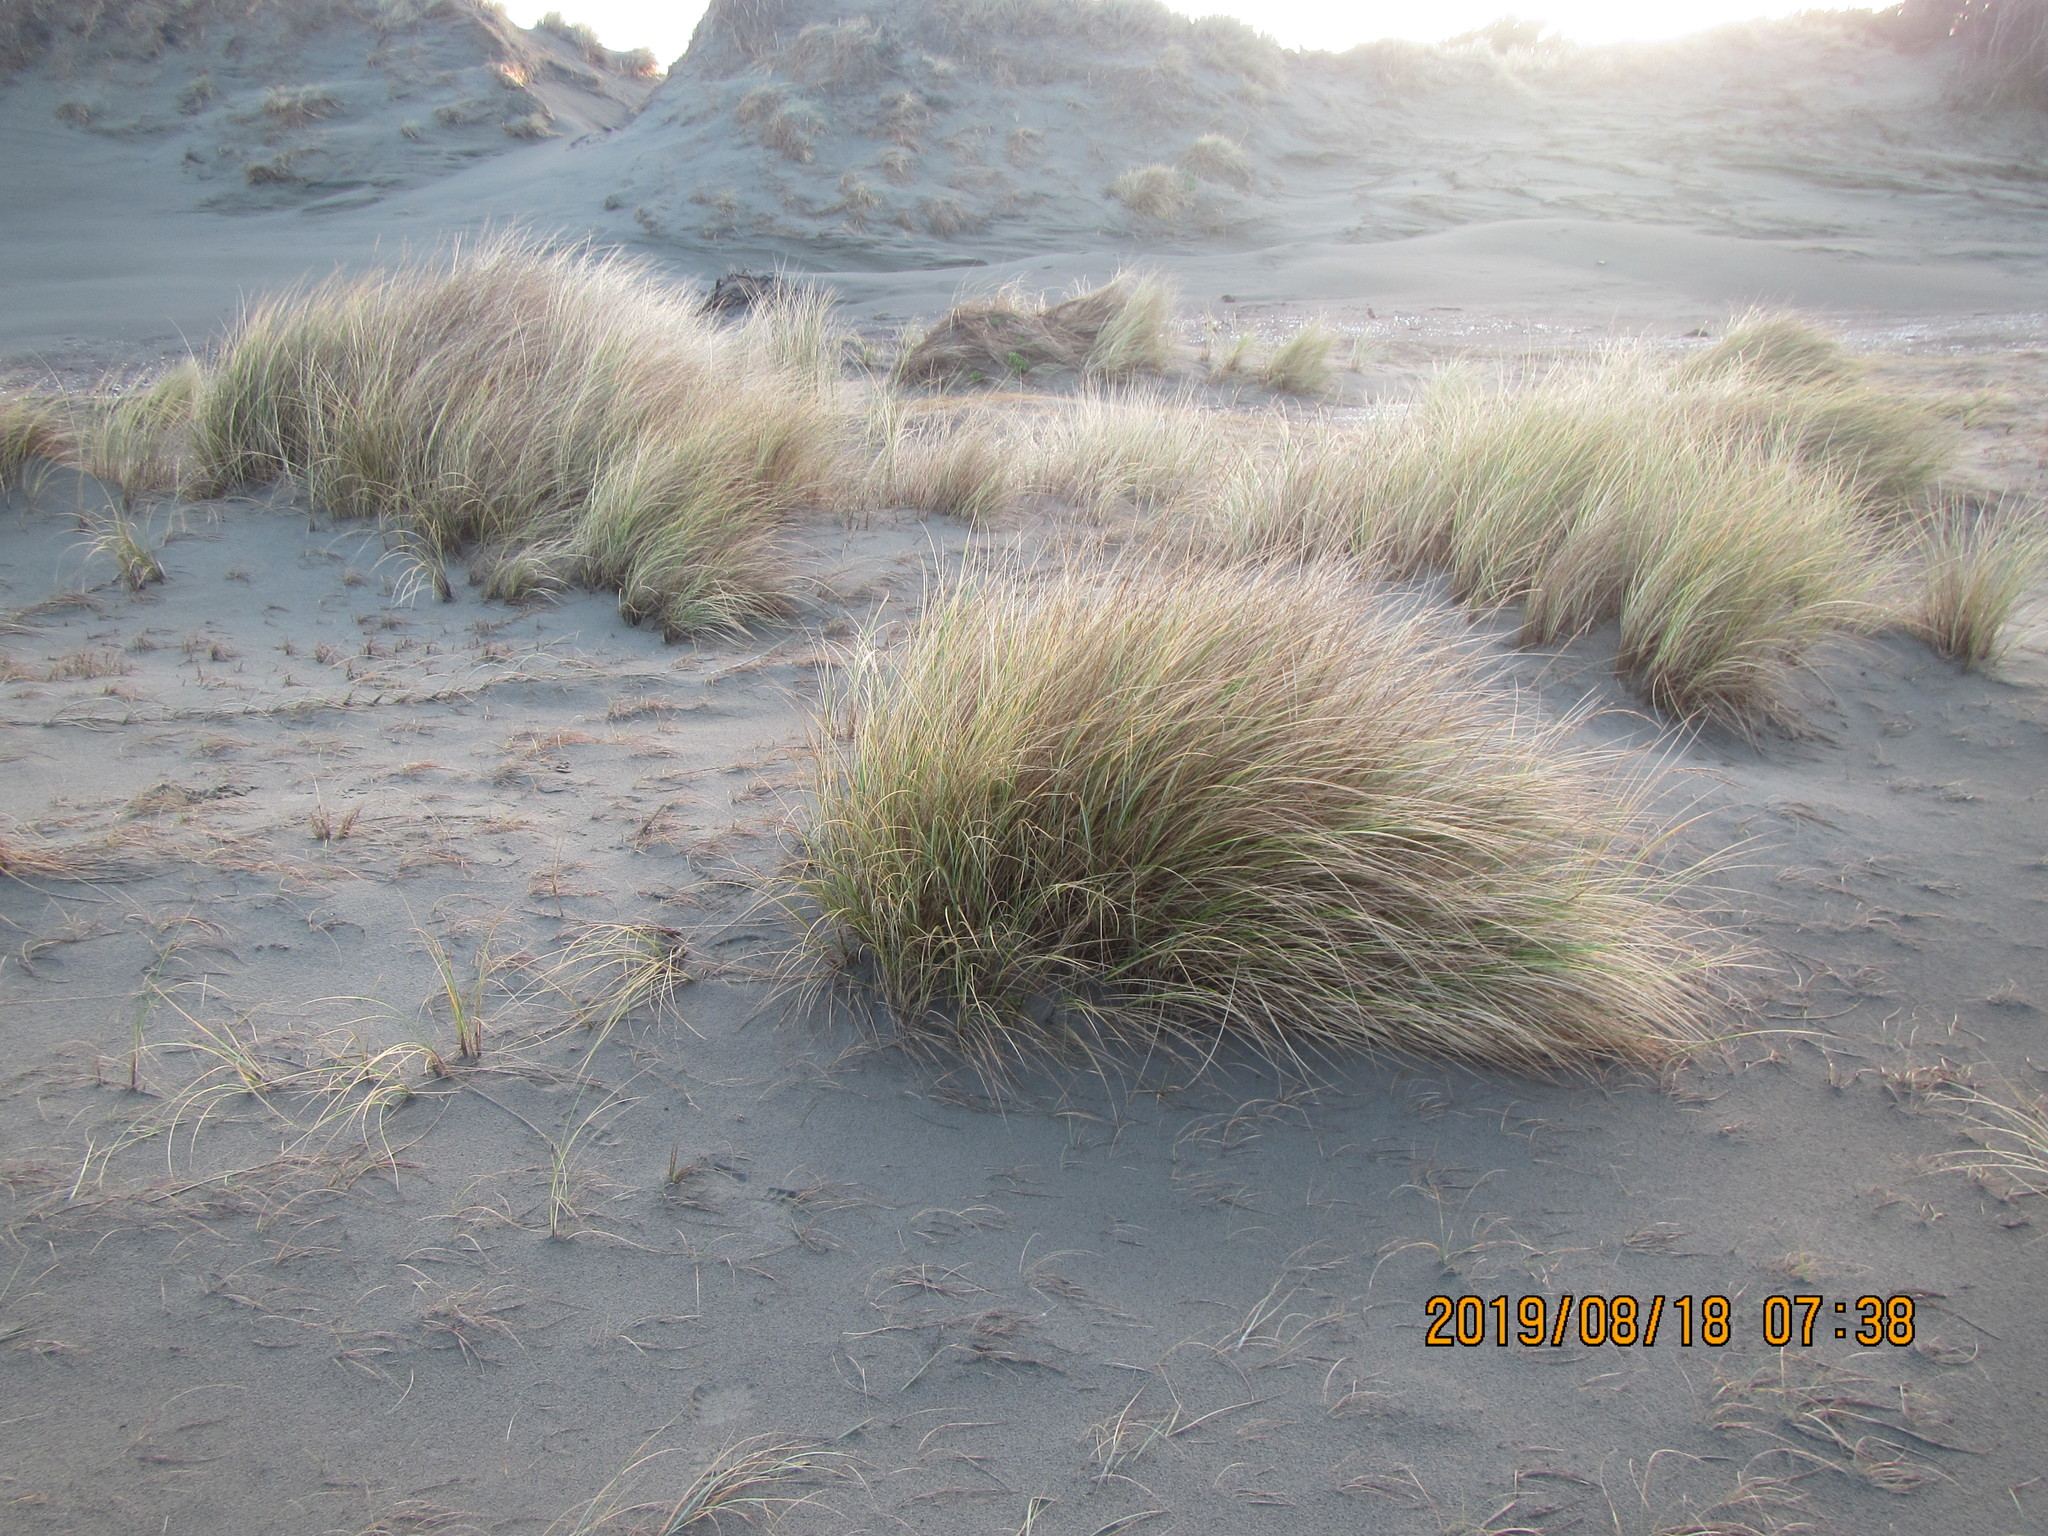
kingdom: Plantae
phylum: Tracheophyta
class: Liliopsida
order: Poales
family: Poaceae
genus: Calamagrostis
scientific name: Calamagrostis arenaria
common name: European beachgrass
